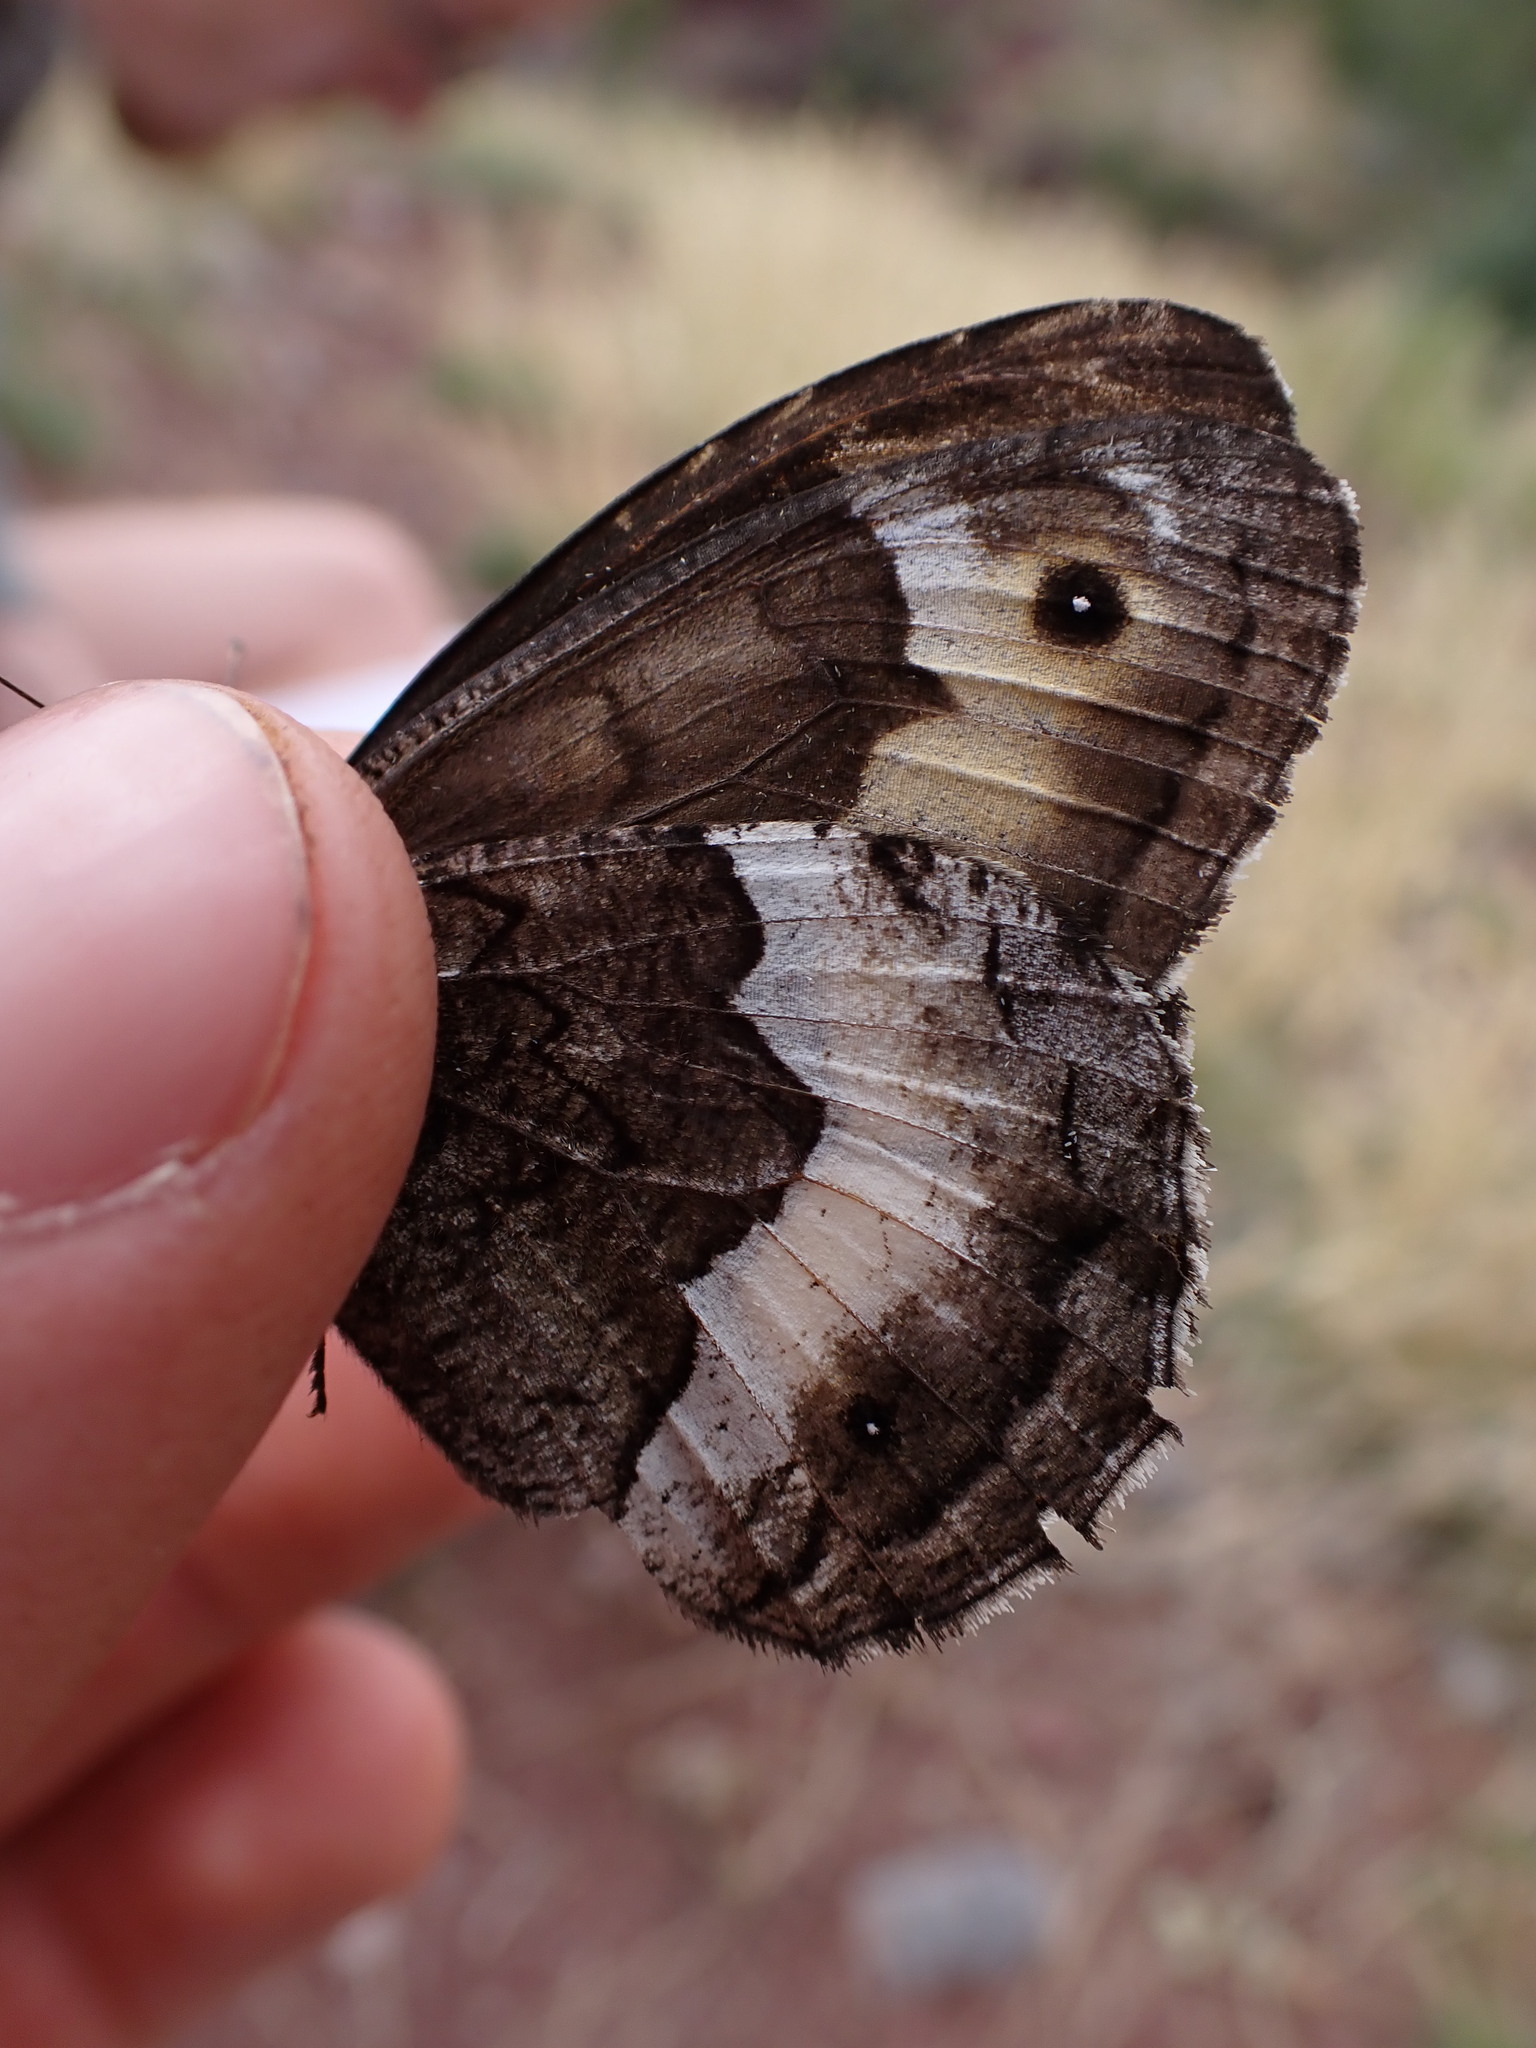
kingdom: Animalia
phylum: Arthropoda
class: Insecta
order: Lepidoptera
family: Nymphalidae
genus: Hipparchia
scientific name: Hipparchia hermione
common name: Rock grayling
